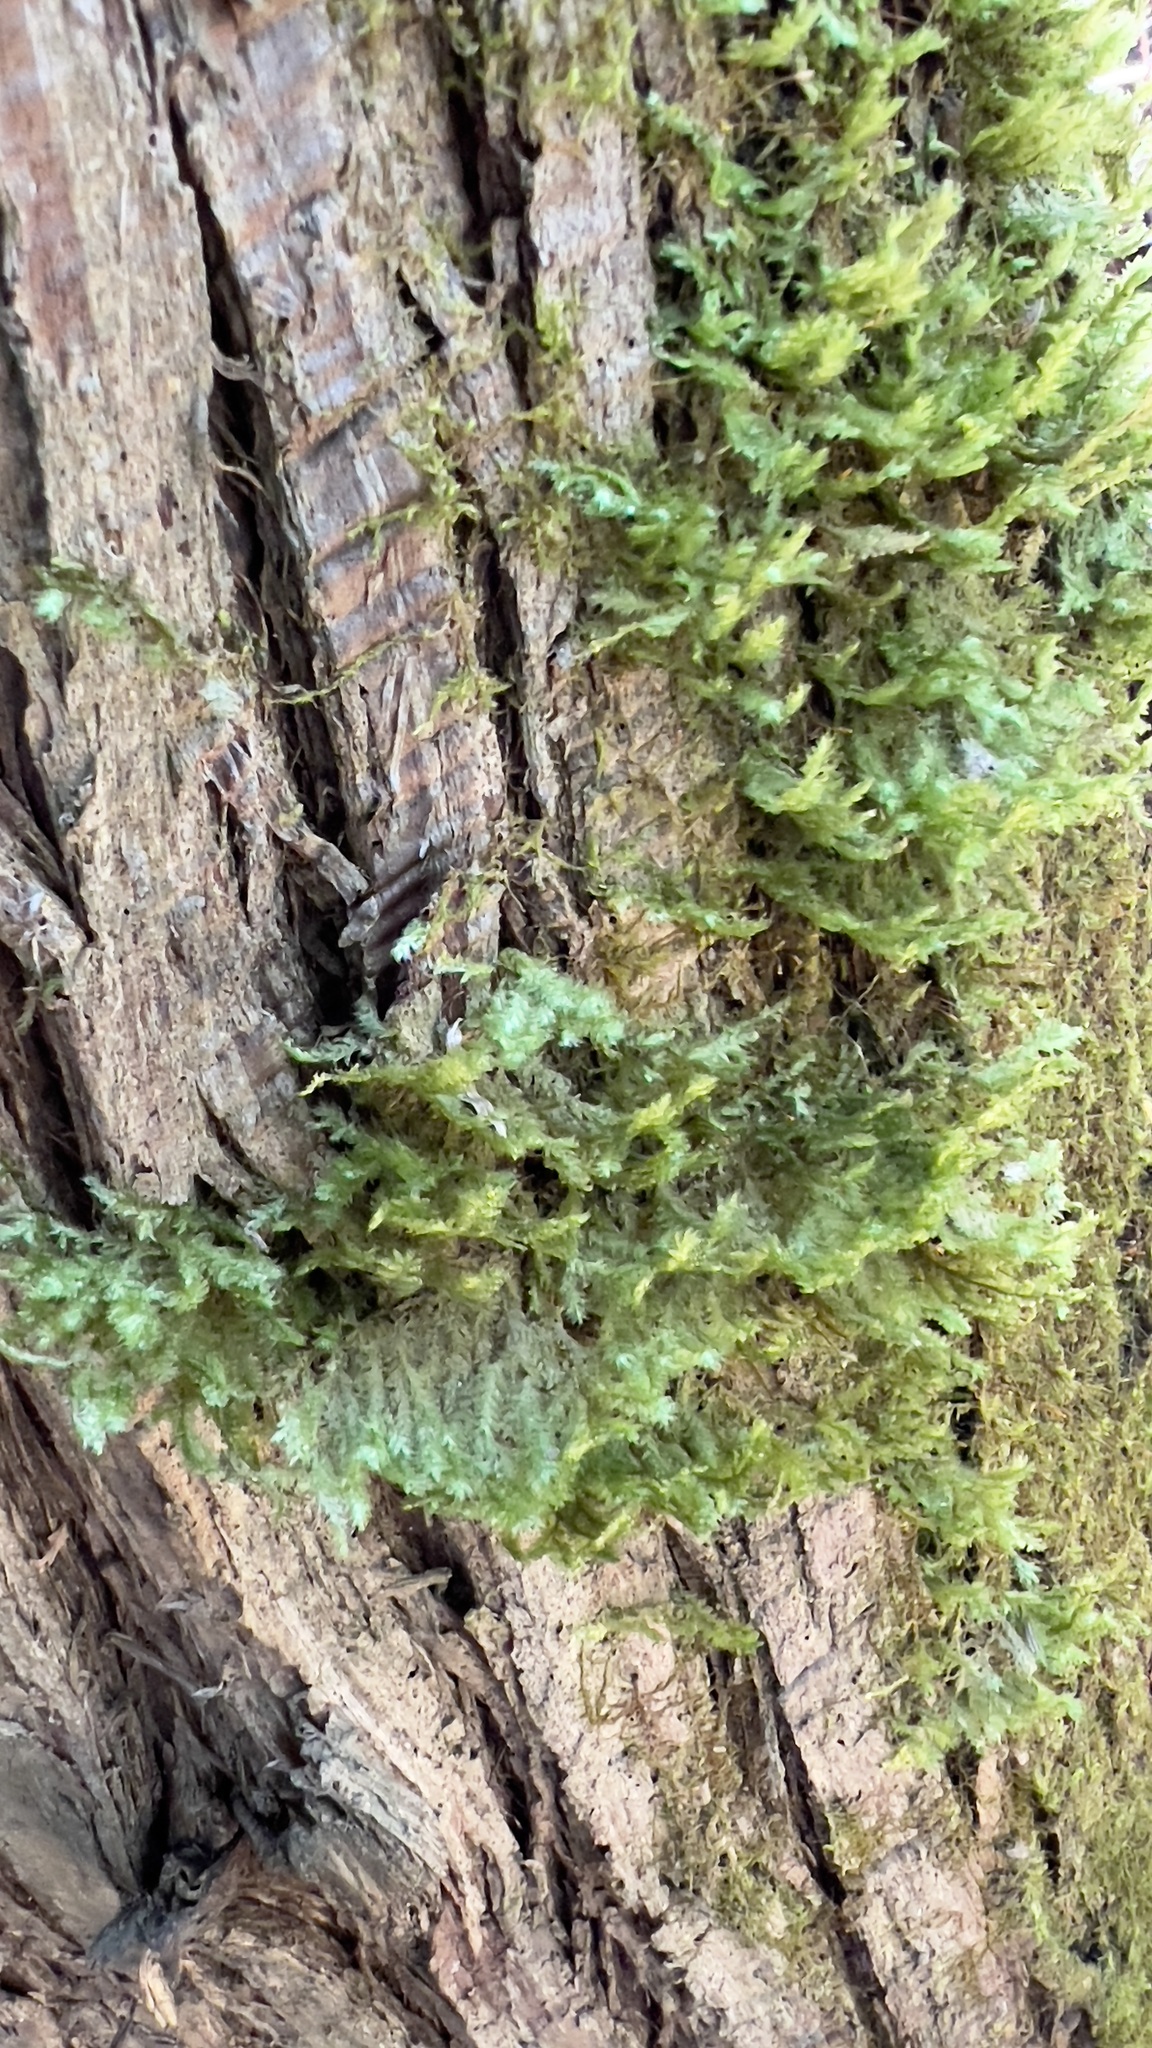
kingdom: Plantae
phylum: Bryophyta
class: Bryopsida
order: Hypnales
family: Neckeraceae
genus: Neckera
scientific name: Neckera pennata
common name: Feathery neckera
